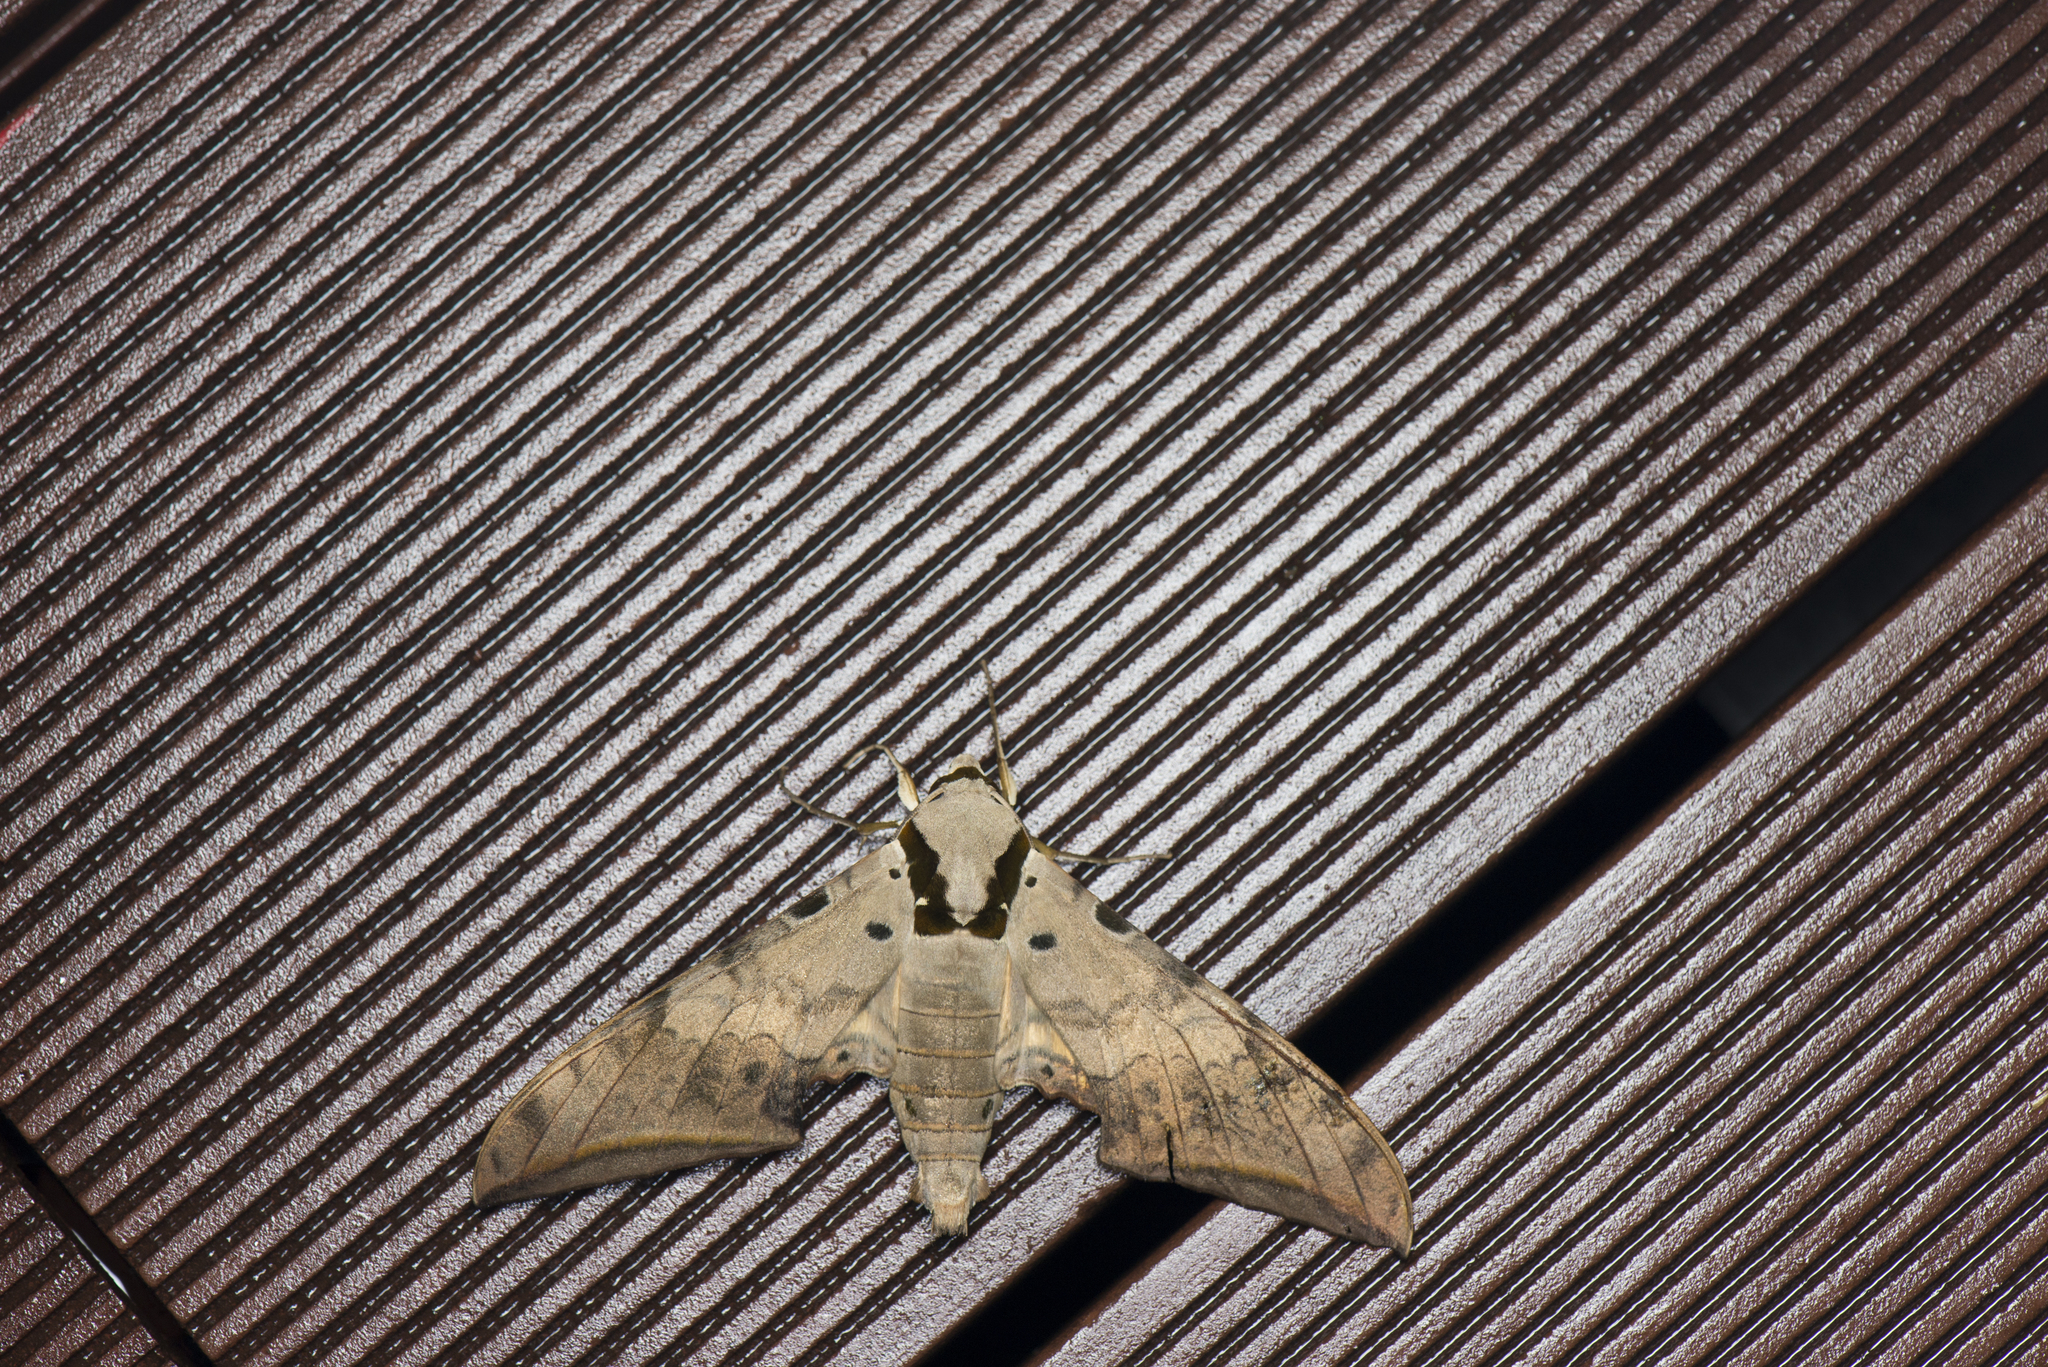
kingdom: Animalia
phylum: Arthropoda
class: Insecta
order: Lepidoptera
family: Sphingidae
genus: Ambulyx
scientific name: Ambulyx sericeipennis
